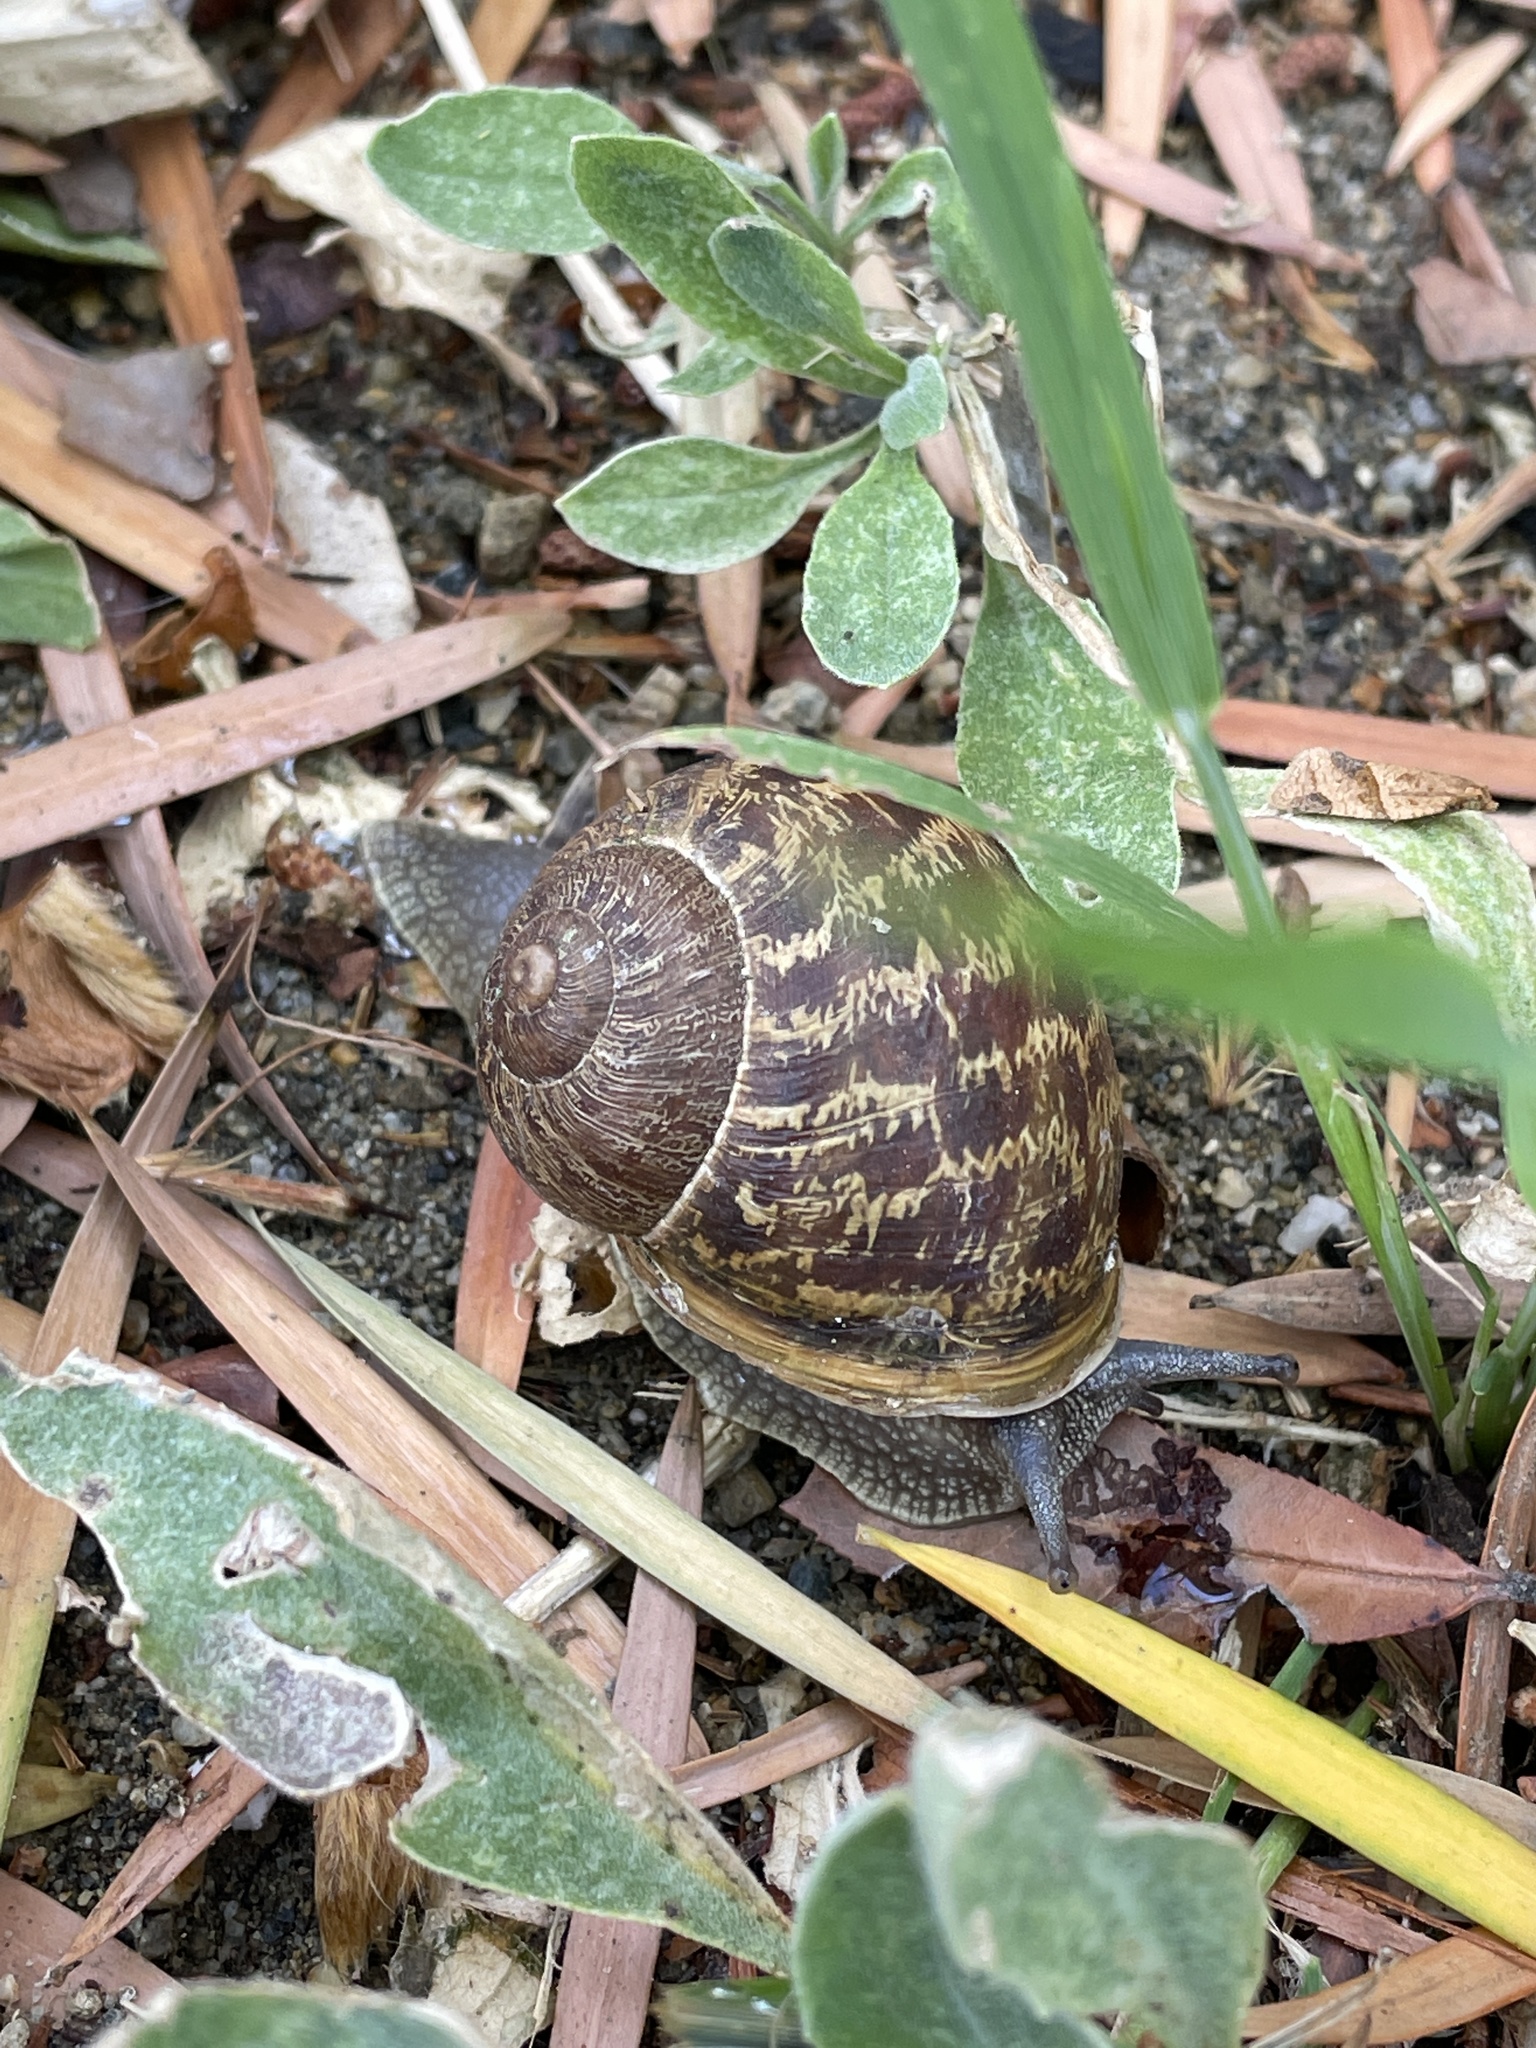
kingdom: Animalia
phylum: Mollusca
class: Gastropoda
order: Stylommatophora
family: Helicidae
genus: Cornu
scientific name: Cornu aspersum
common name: Brown garden snail
